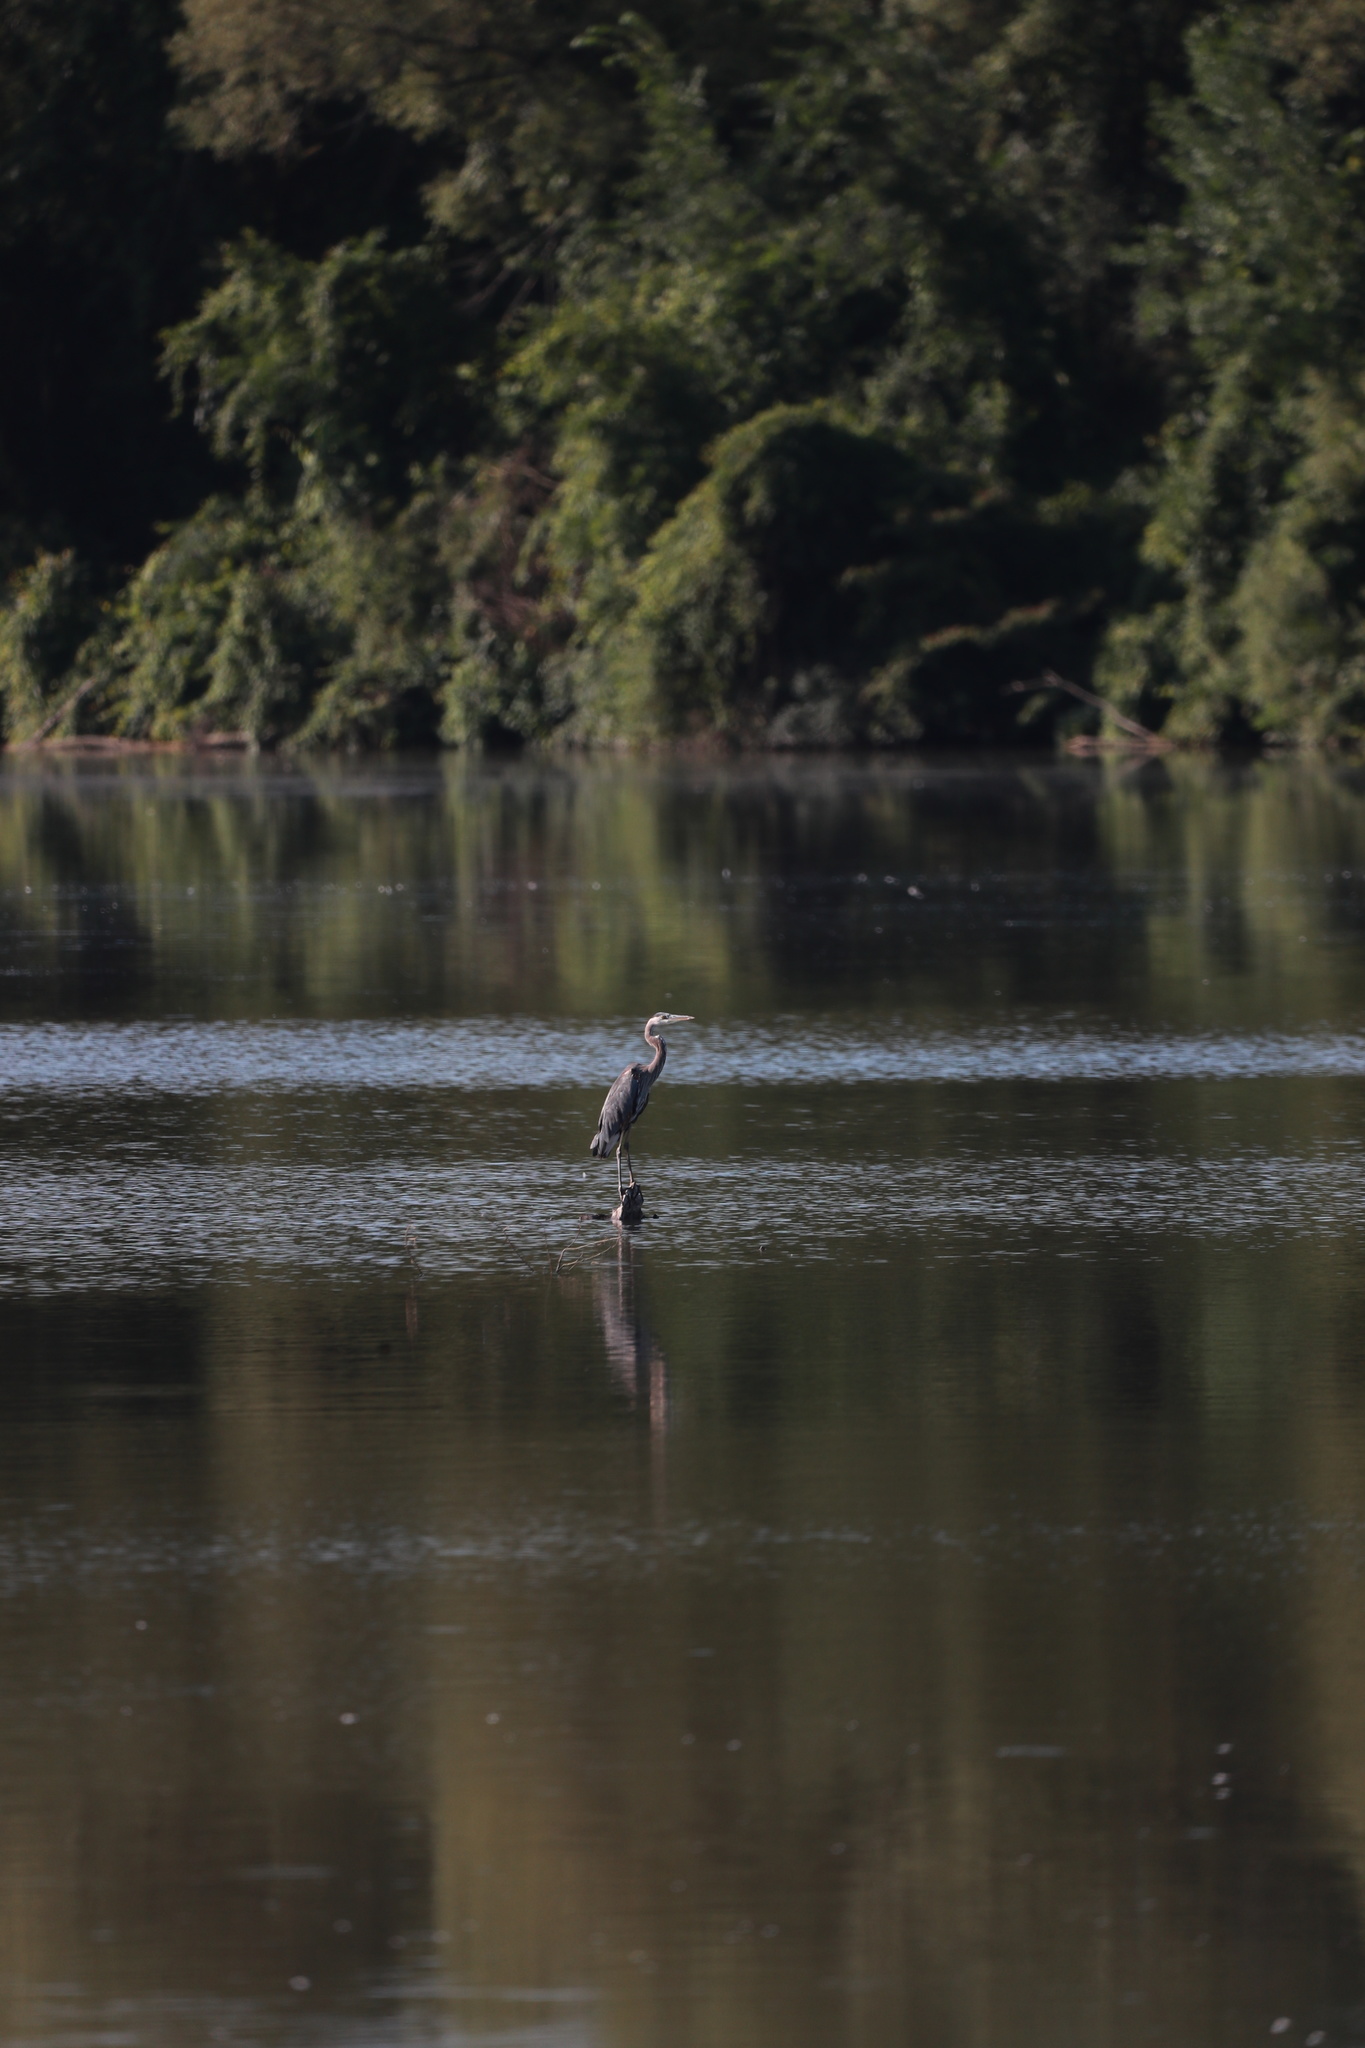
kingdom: Animalia
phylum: Chordata
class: Aves
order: Pelecaniformes
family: Ardeidae
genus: Ardea
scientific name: Ardea herodias
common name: Great blue heron
